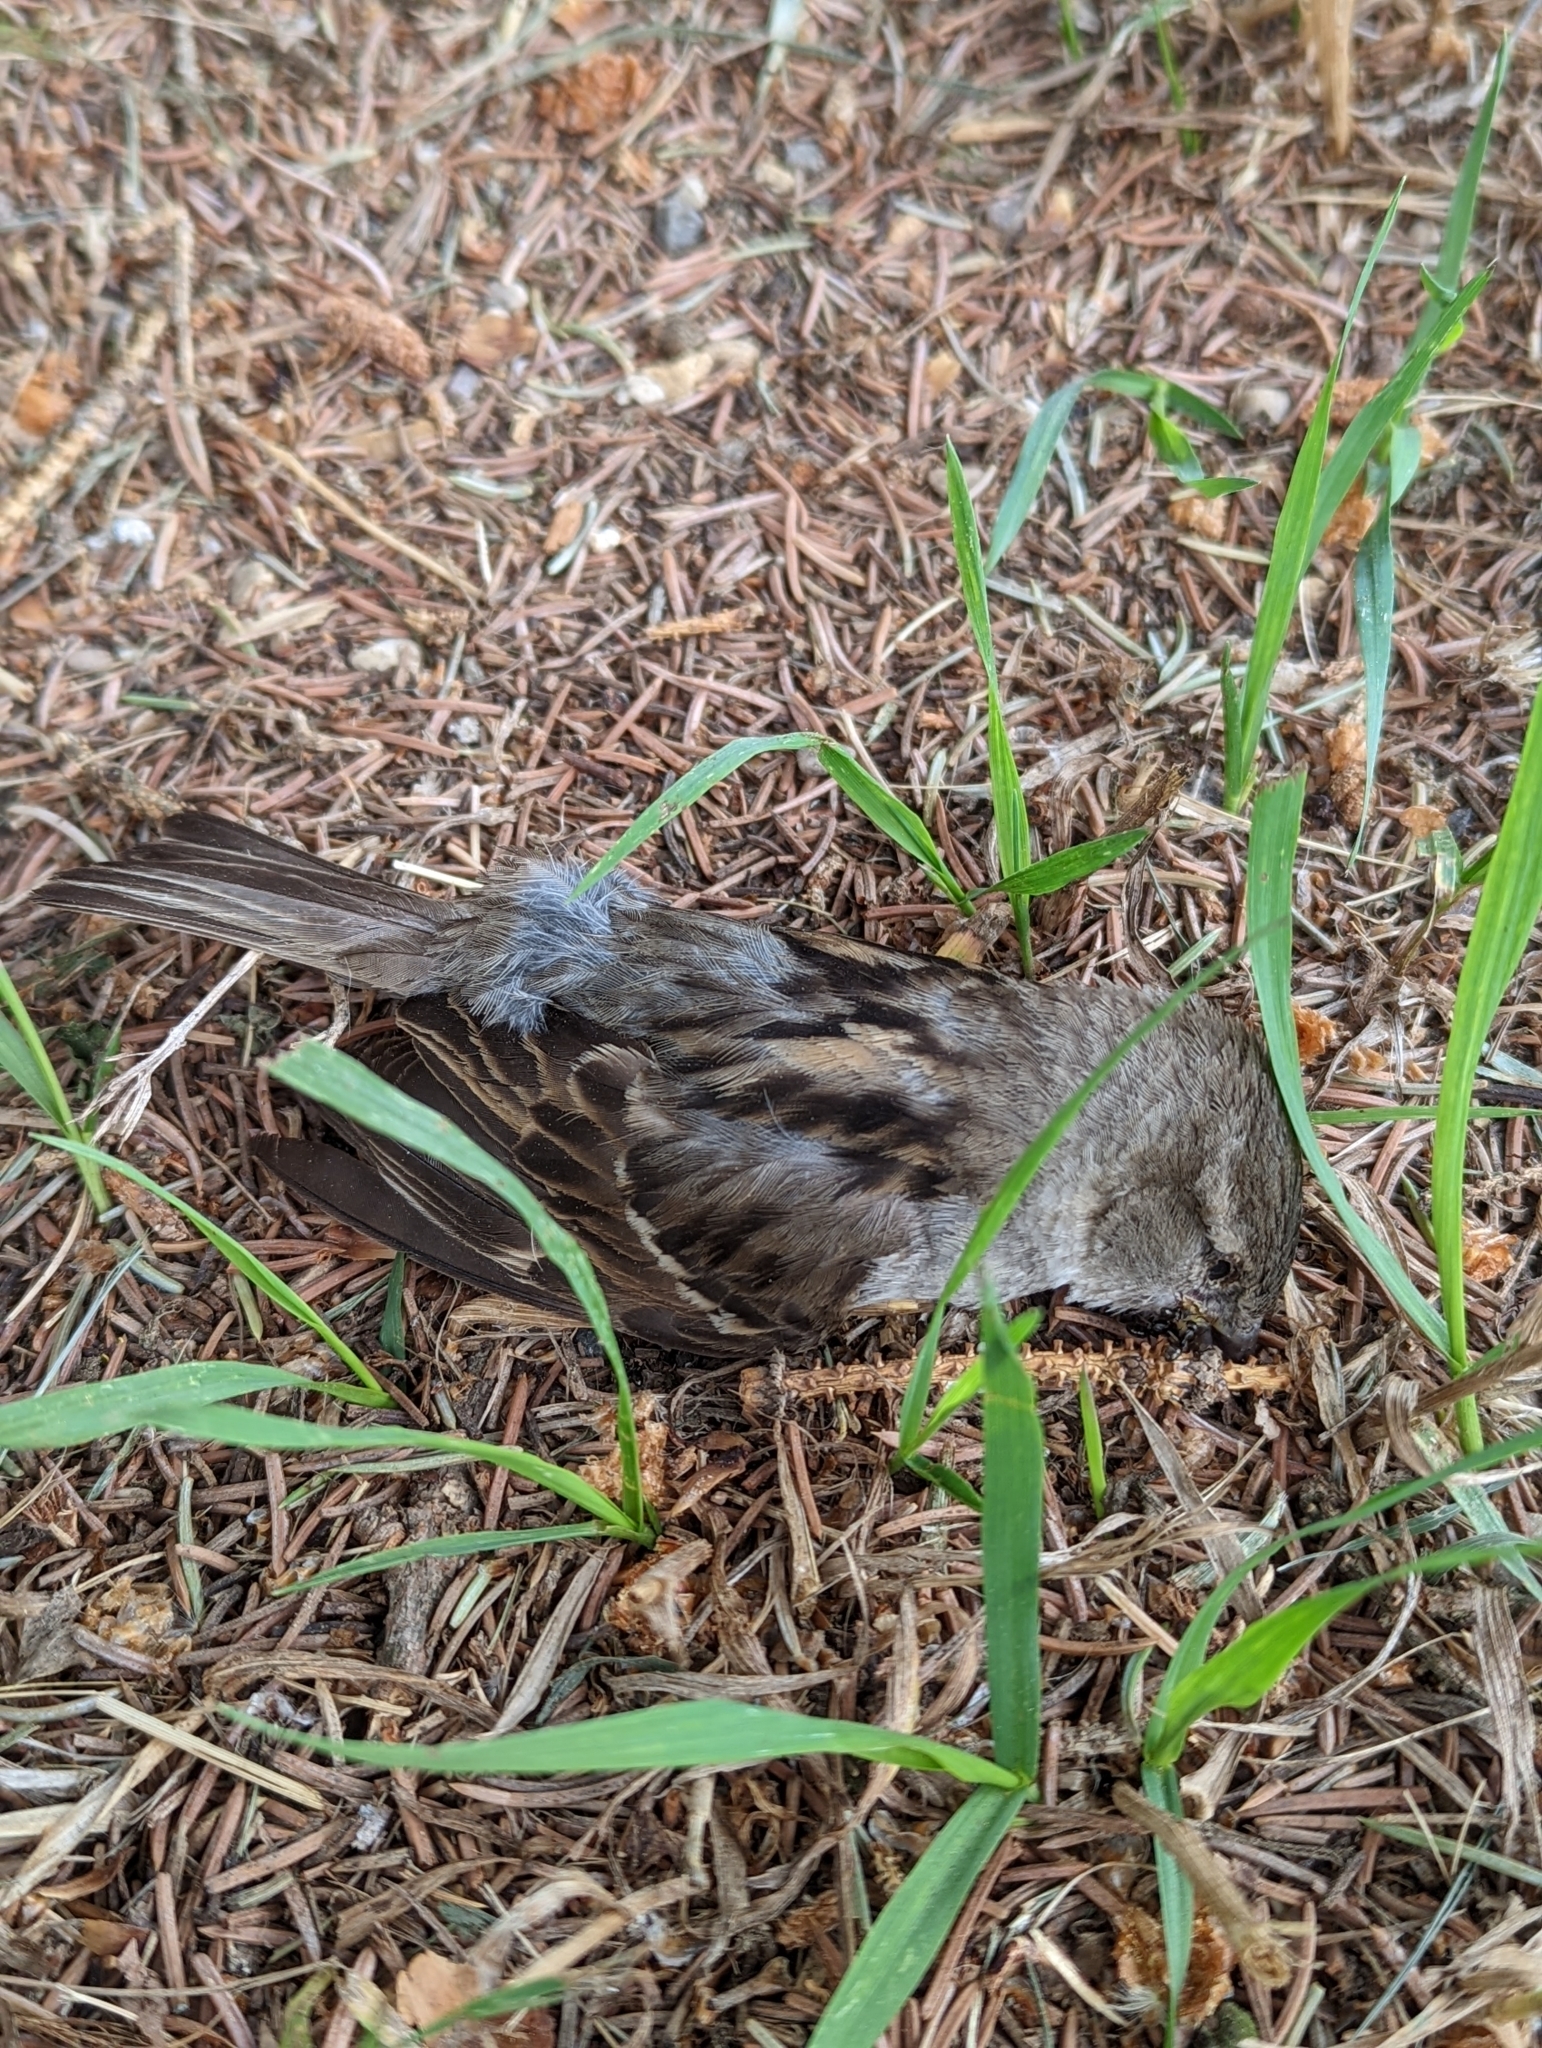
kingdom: Animalia
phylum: Chordata
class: Aves
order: Passeriformes
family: Passeridae
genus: Passer
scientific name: Passer domesticus
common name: House sparrow
